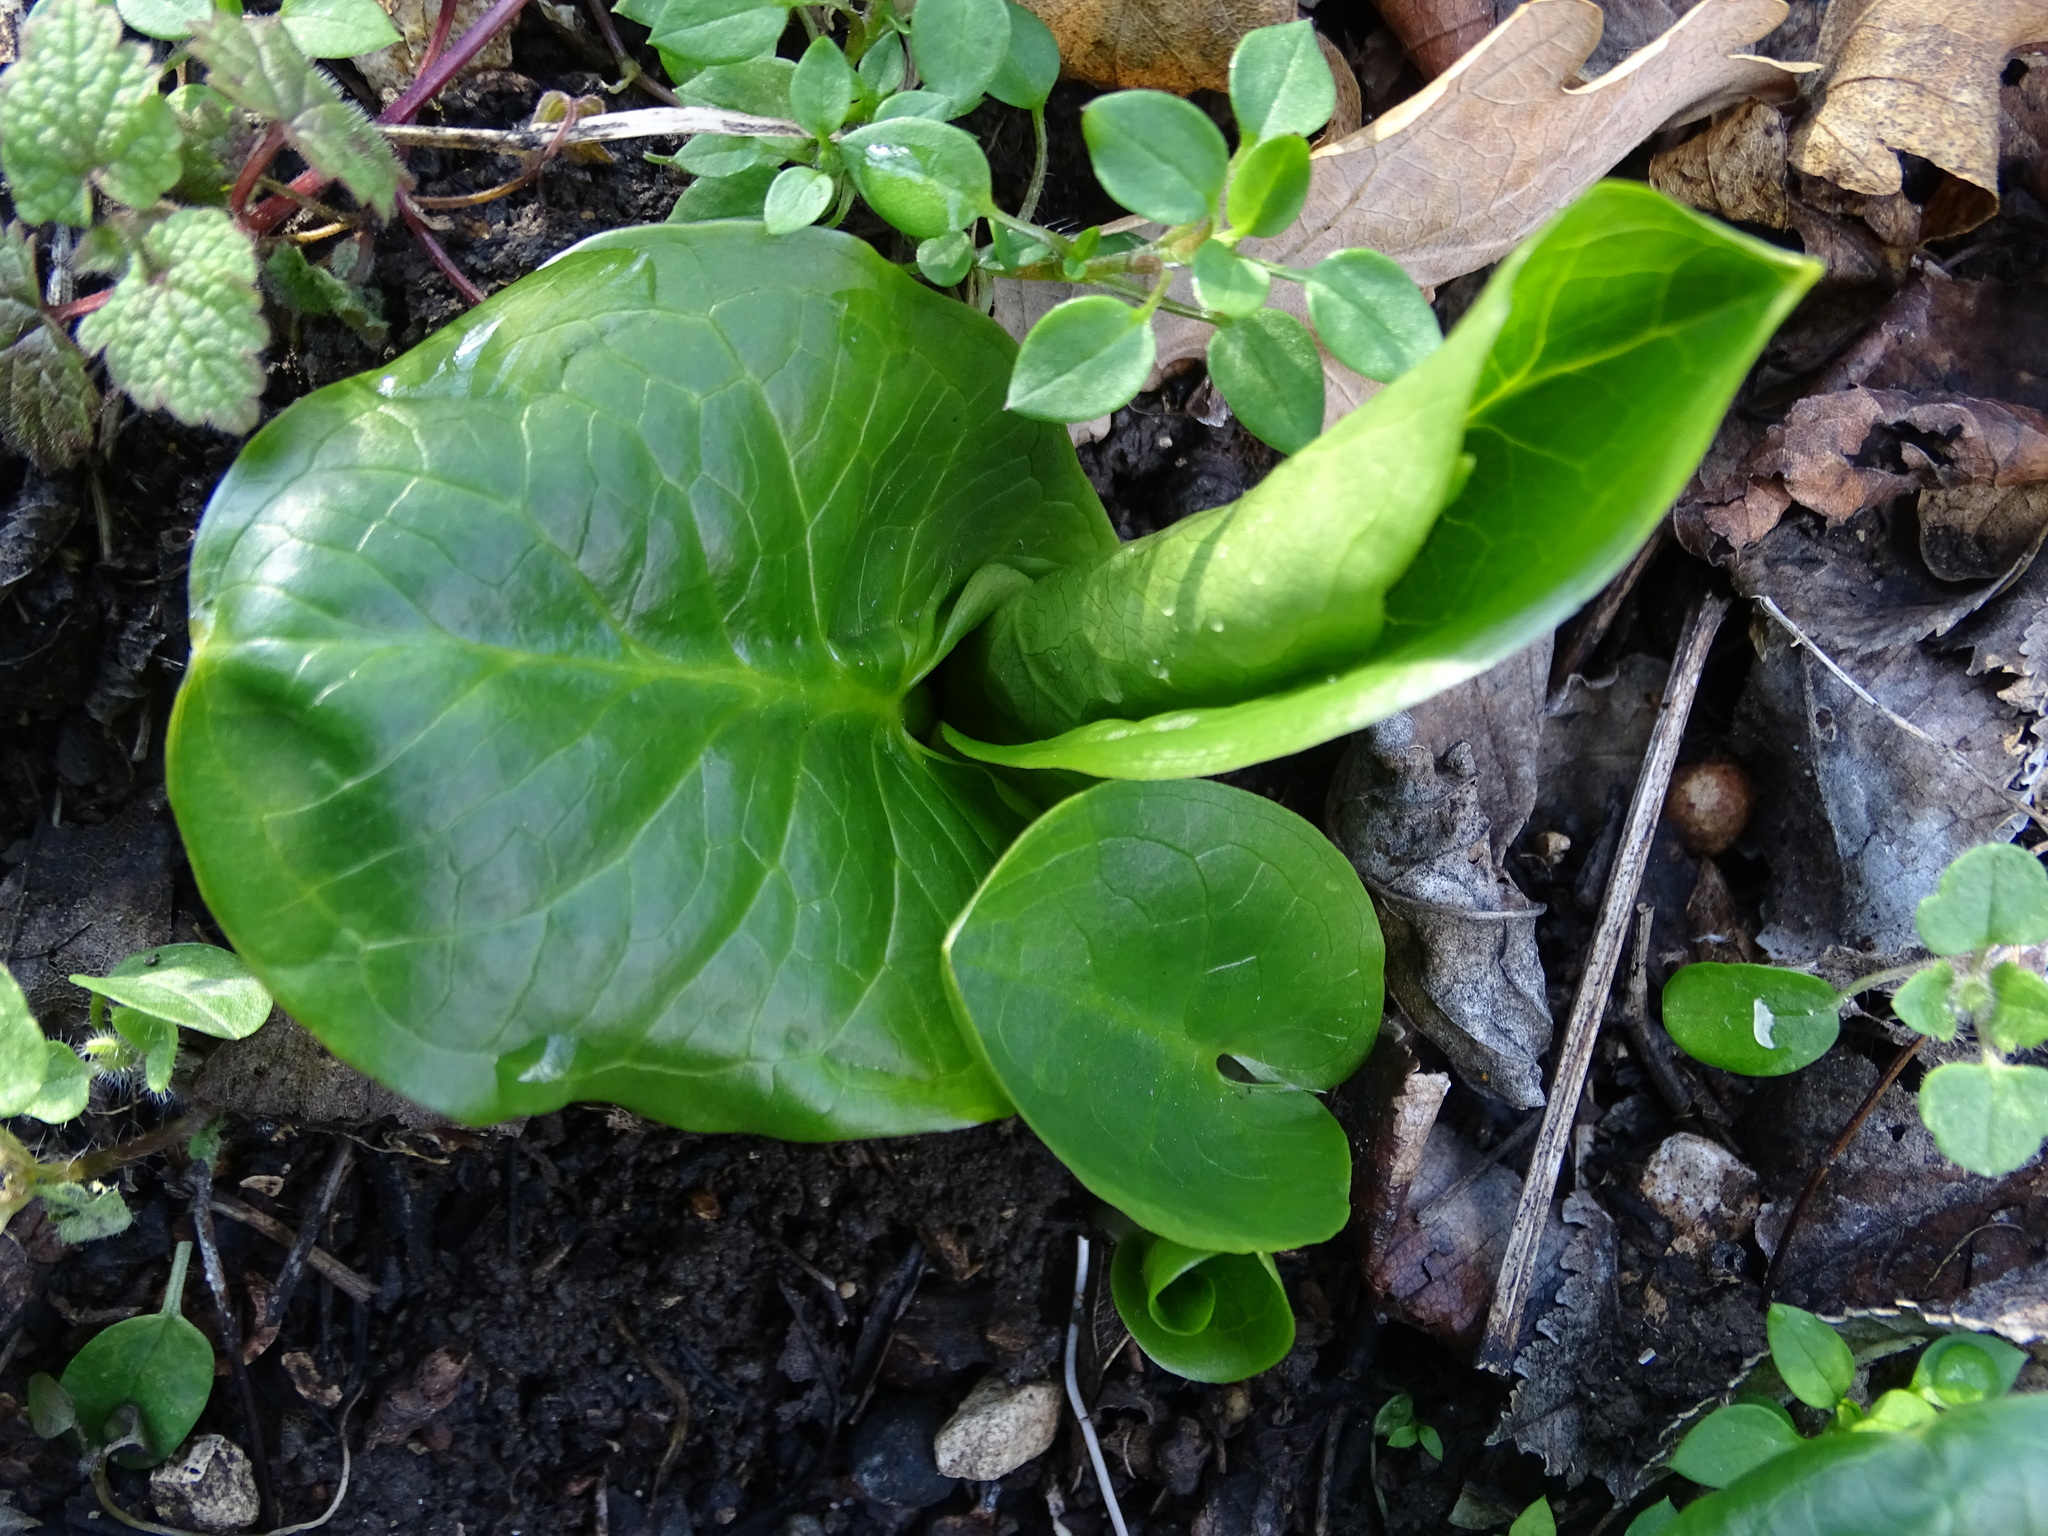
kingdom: Plantae
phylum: Tracheophyta
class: Liliopsida
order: Alismatales
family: Araceae
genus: Arum
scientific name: Arum cylindraceum
